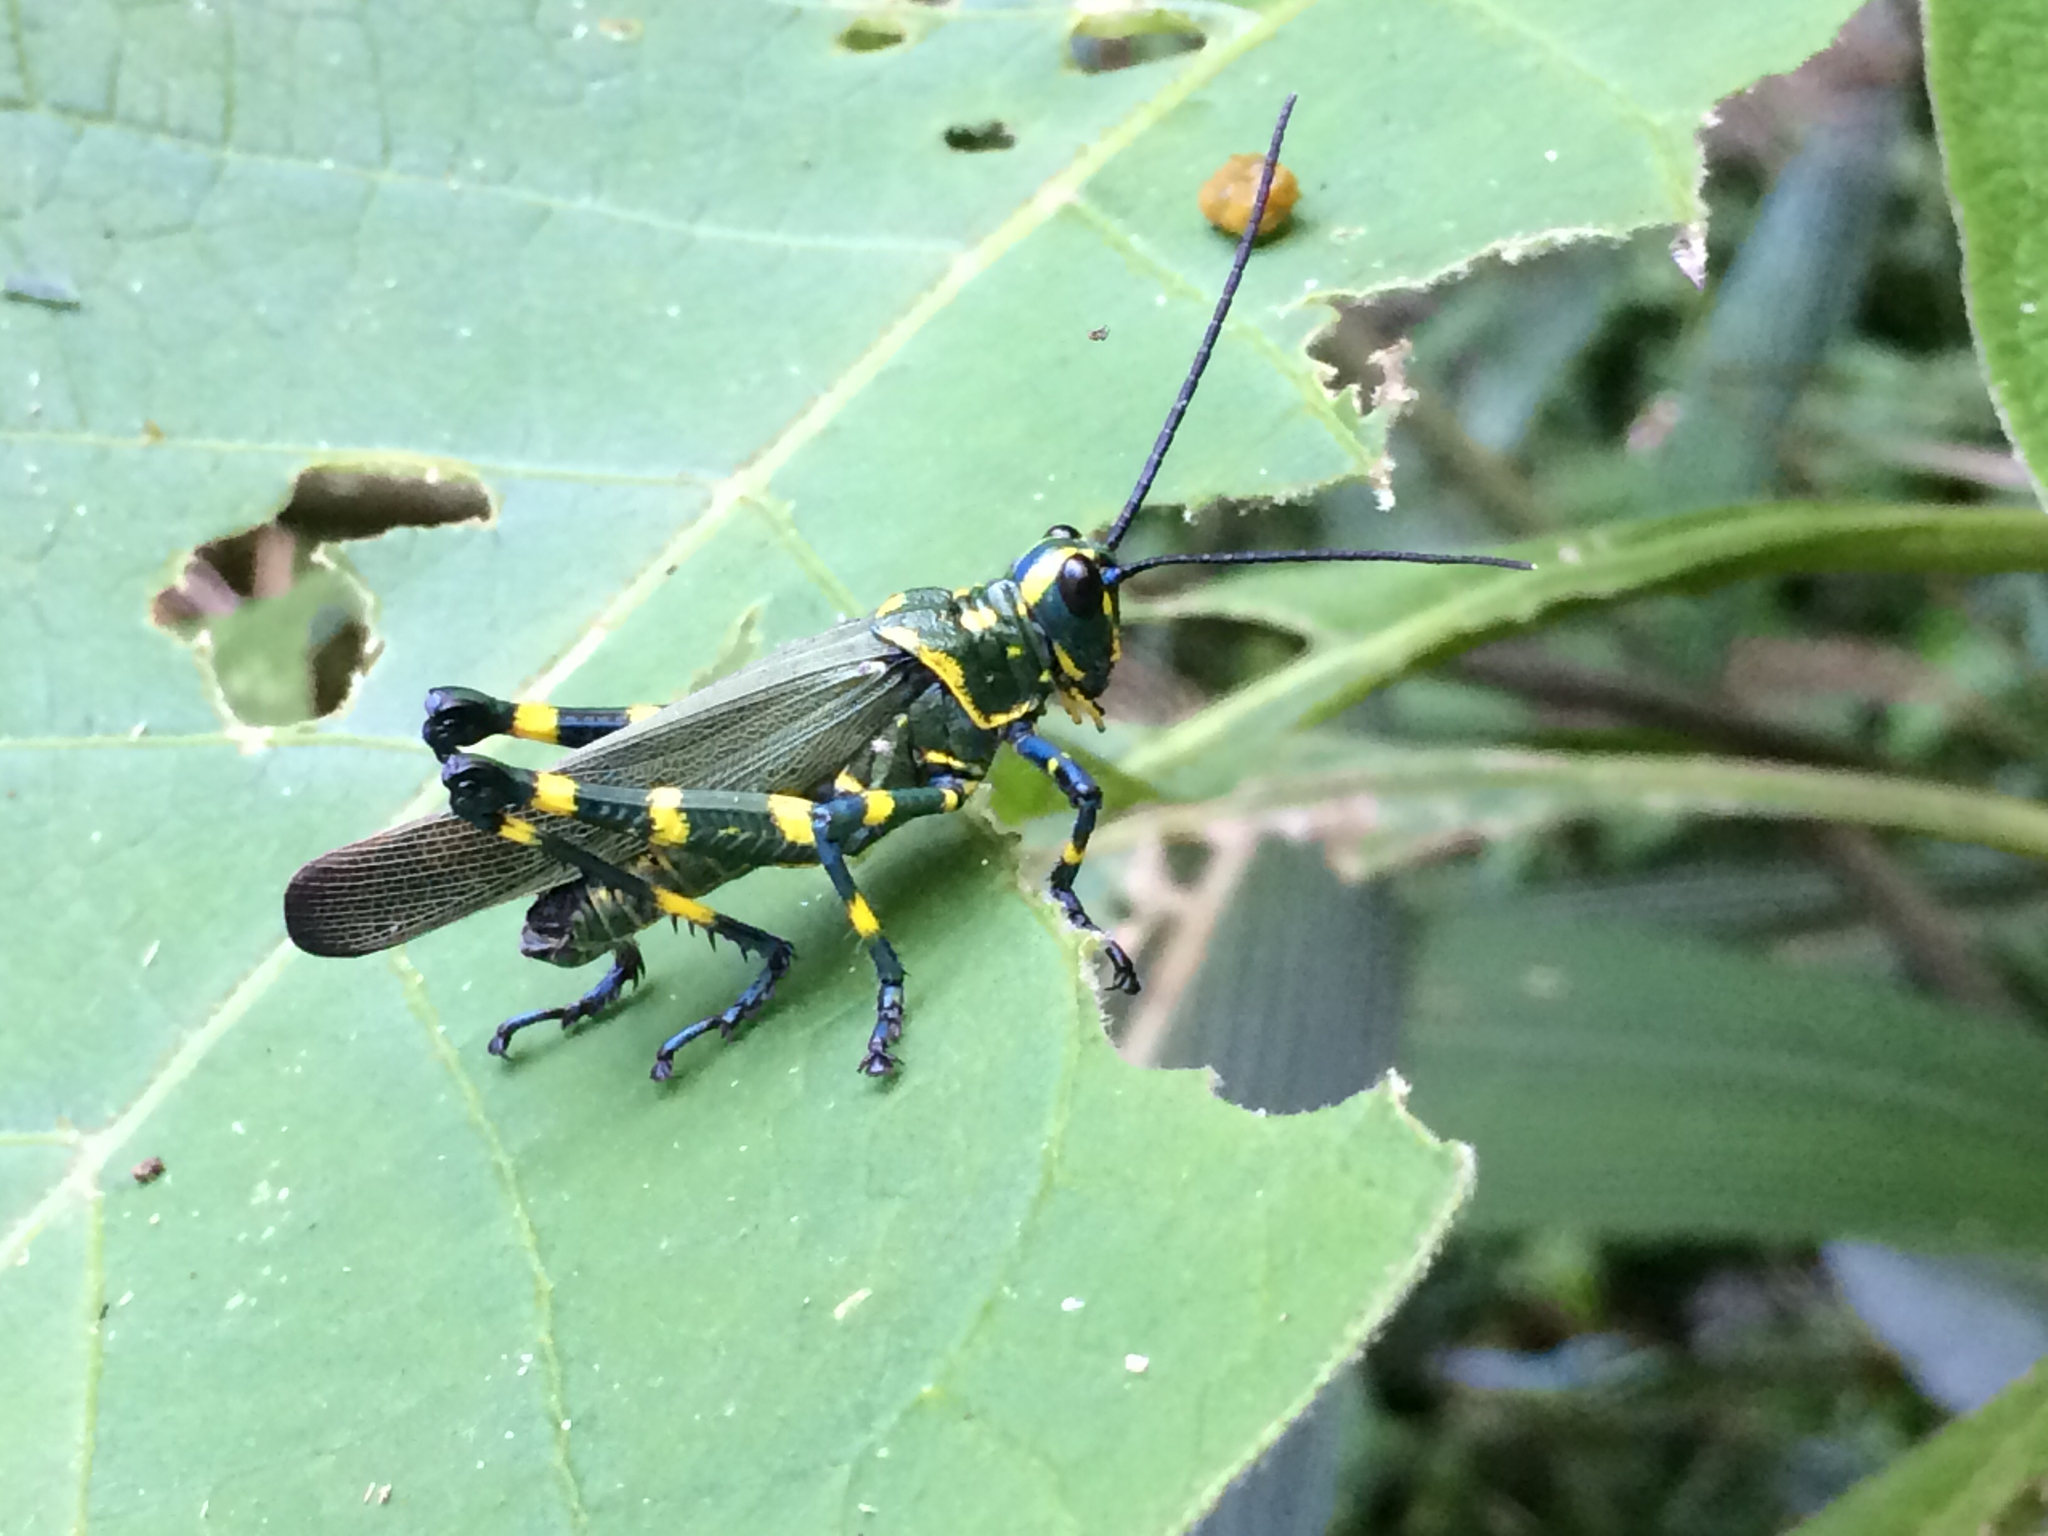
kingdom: Animalia
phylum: Arthropoda
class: Insecta
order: Orthoptera
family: Romaleidae
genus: Chromacris
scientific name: Chromacris speciosa
